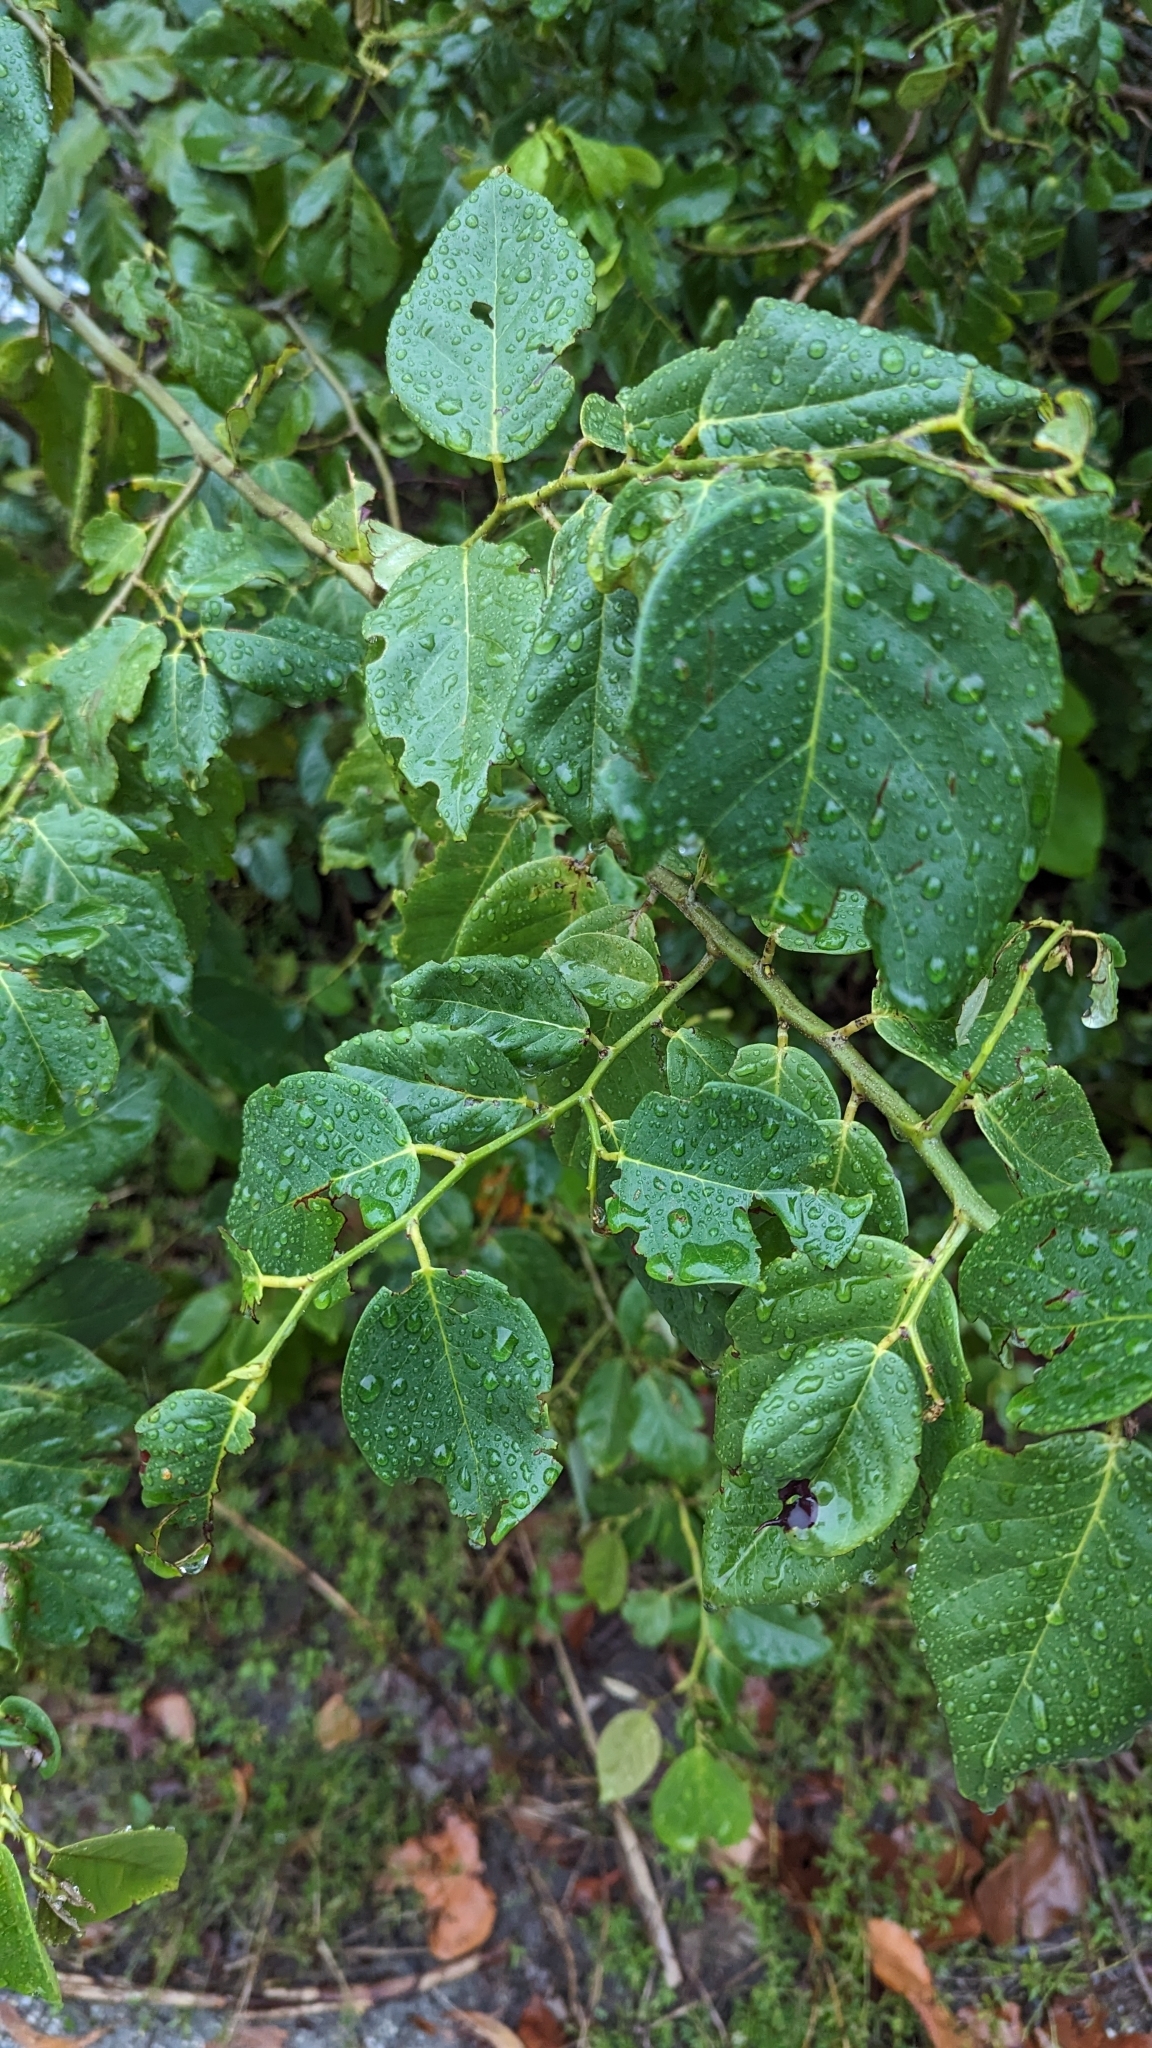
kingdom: Plantae
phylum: Tracheophyta
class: Magnoliopsida
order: Fabales
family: Fabaceae
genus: Dalbergia
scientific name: Dalbergia ecastaphyllum
